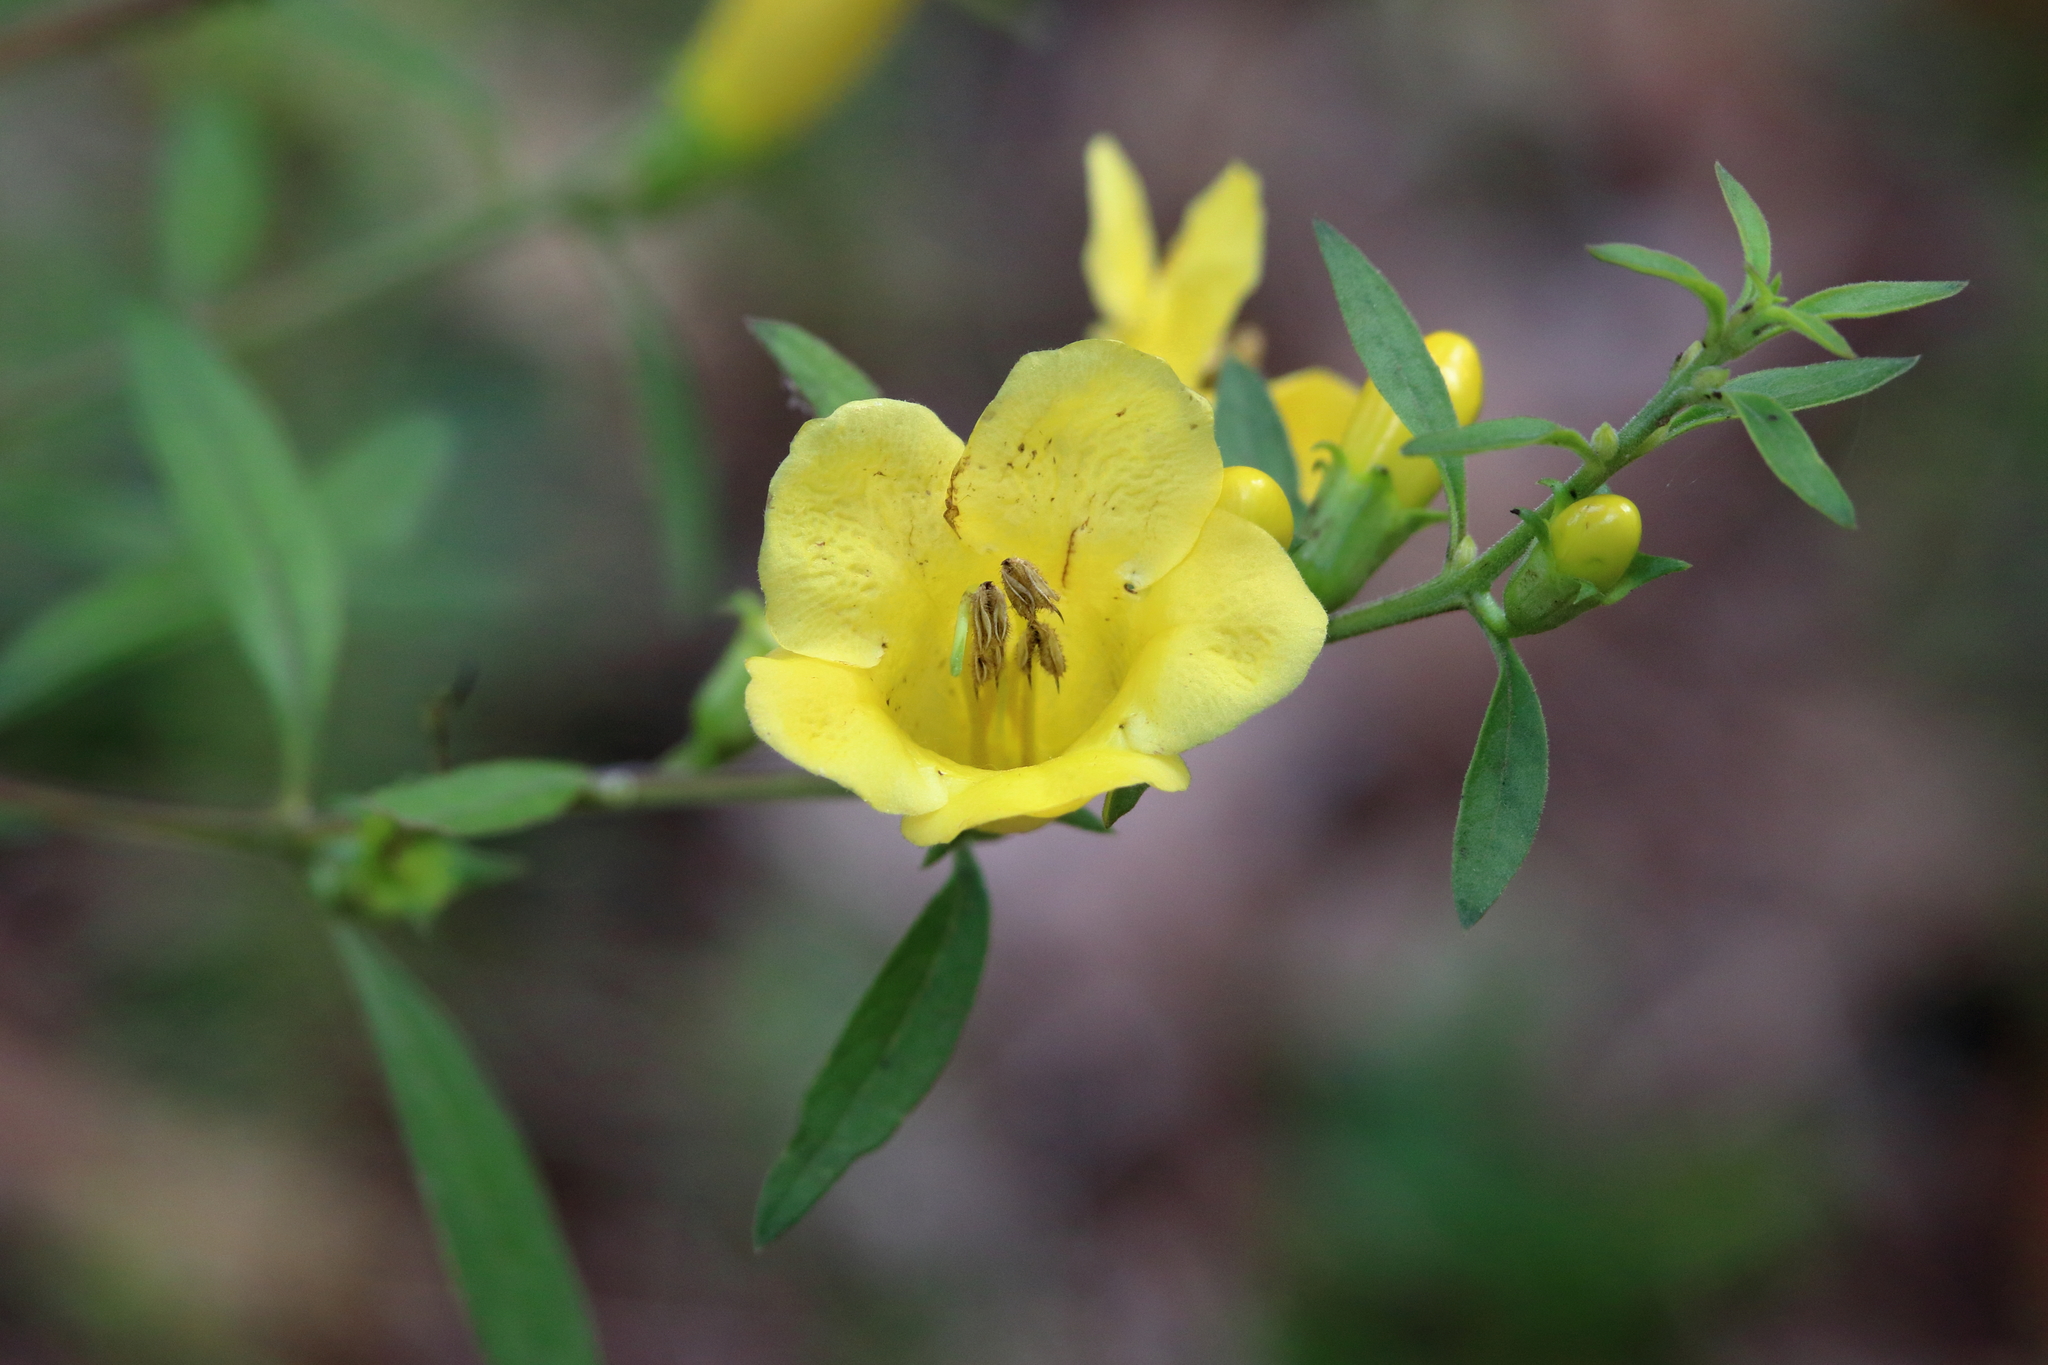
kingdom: Plantae
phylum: Tracheophyta
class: Magnoliopsida
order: Lamiales
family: Orobanchaceae
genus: Aureolaria
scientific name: Aureolaria grandiflora
